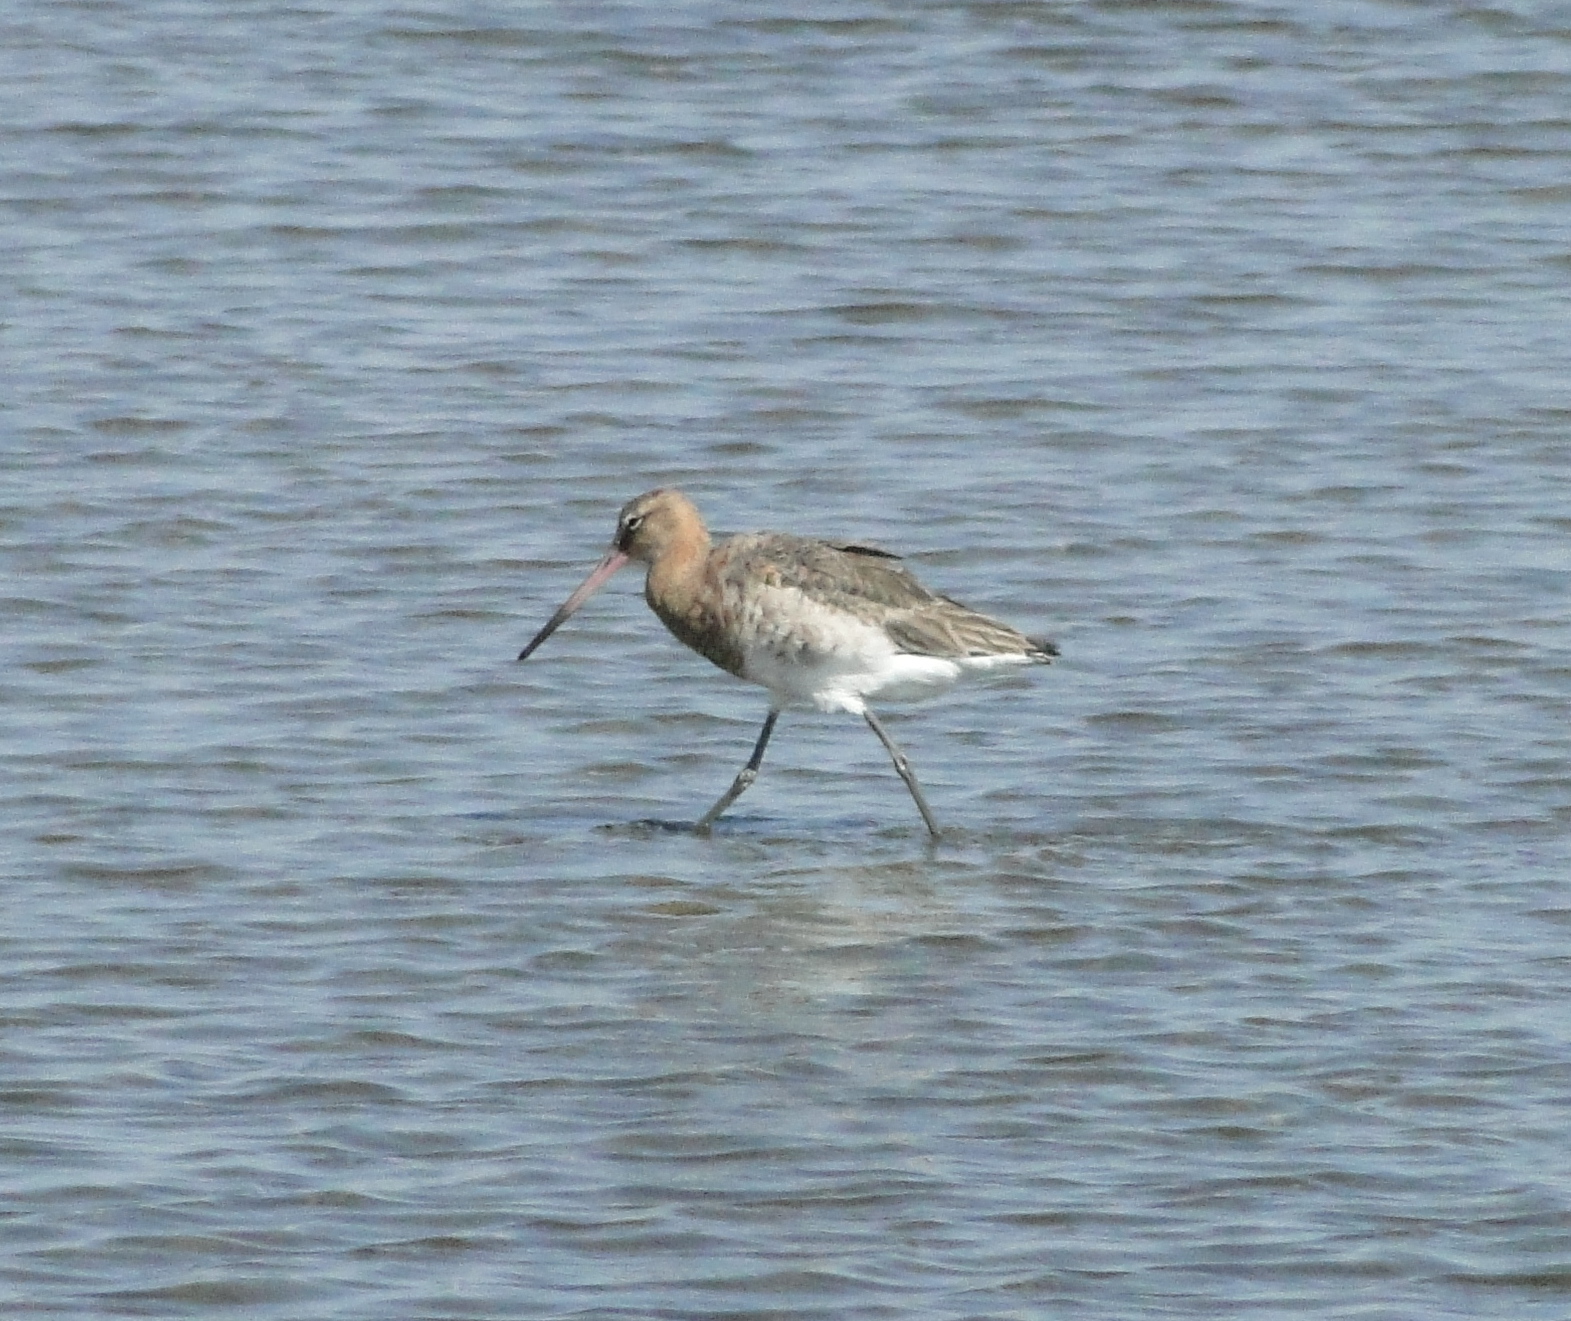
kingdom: Animalia
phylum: Chordata
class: Aves
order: Charadriiformes
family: Scolopacidae
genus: Limosa
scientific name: Limosa limosa
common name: Black-tailed godwit
